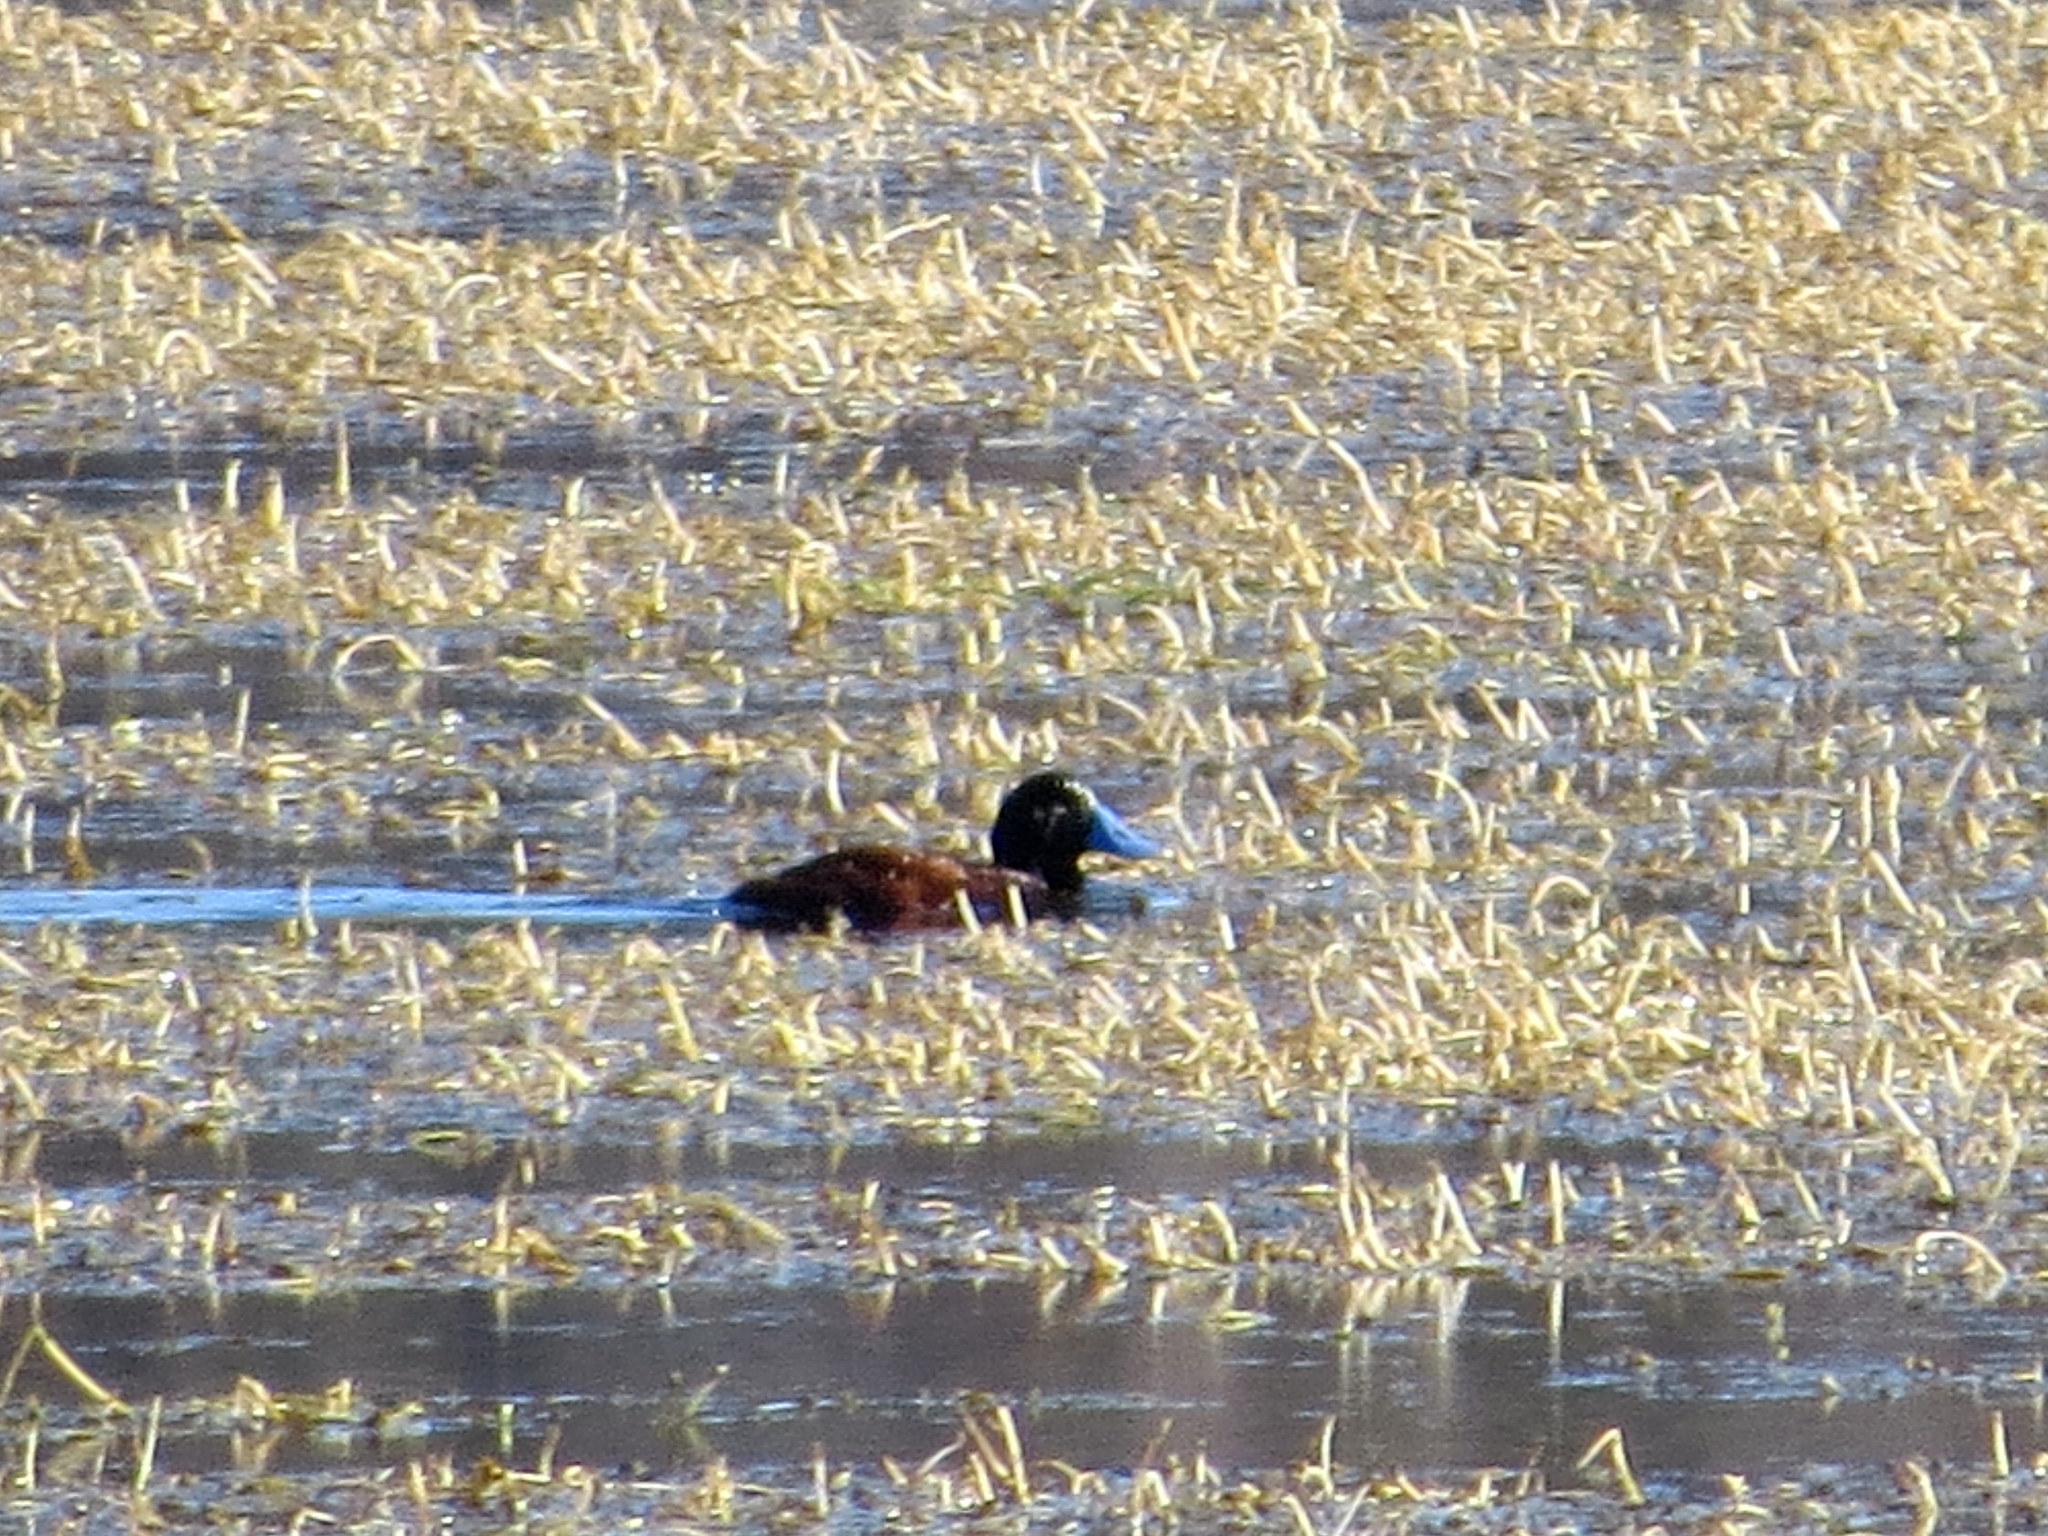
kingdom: Animalia
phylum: Chordata
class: Aves
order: Anseriformes
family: Anatidae
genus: Oxyura
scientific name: Oxyura vittata
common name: Lake duck
